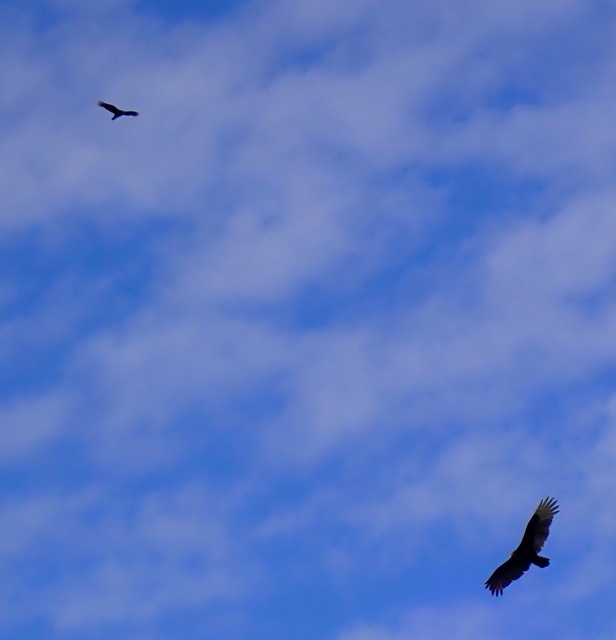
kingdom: Animalia
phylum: Chordata
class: Aves
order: Accipitriformes
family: Cathartidae
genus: Cathartes
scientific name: Cathartes aura
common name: Turkey vulture
